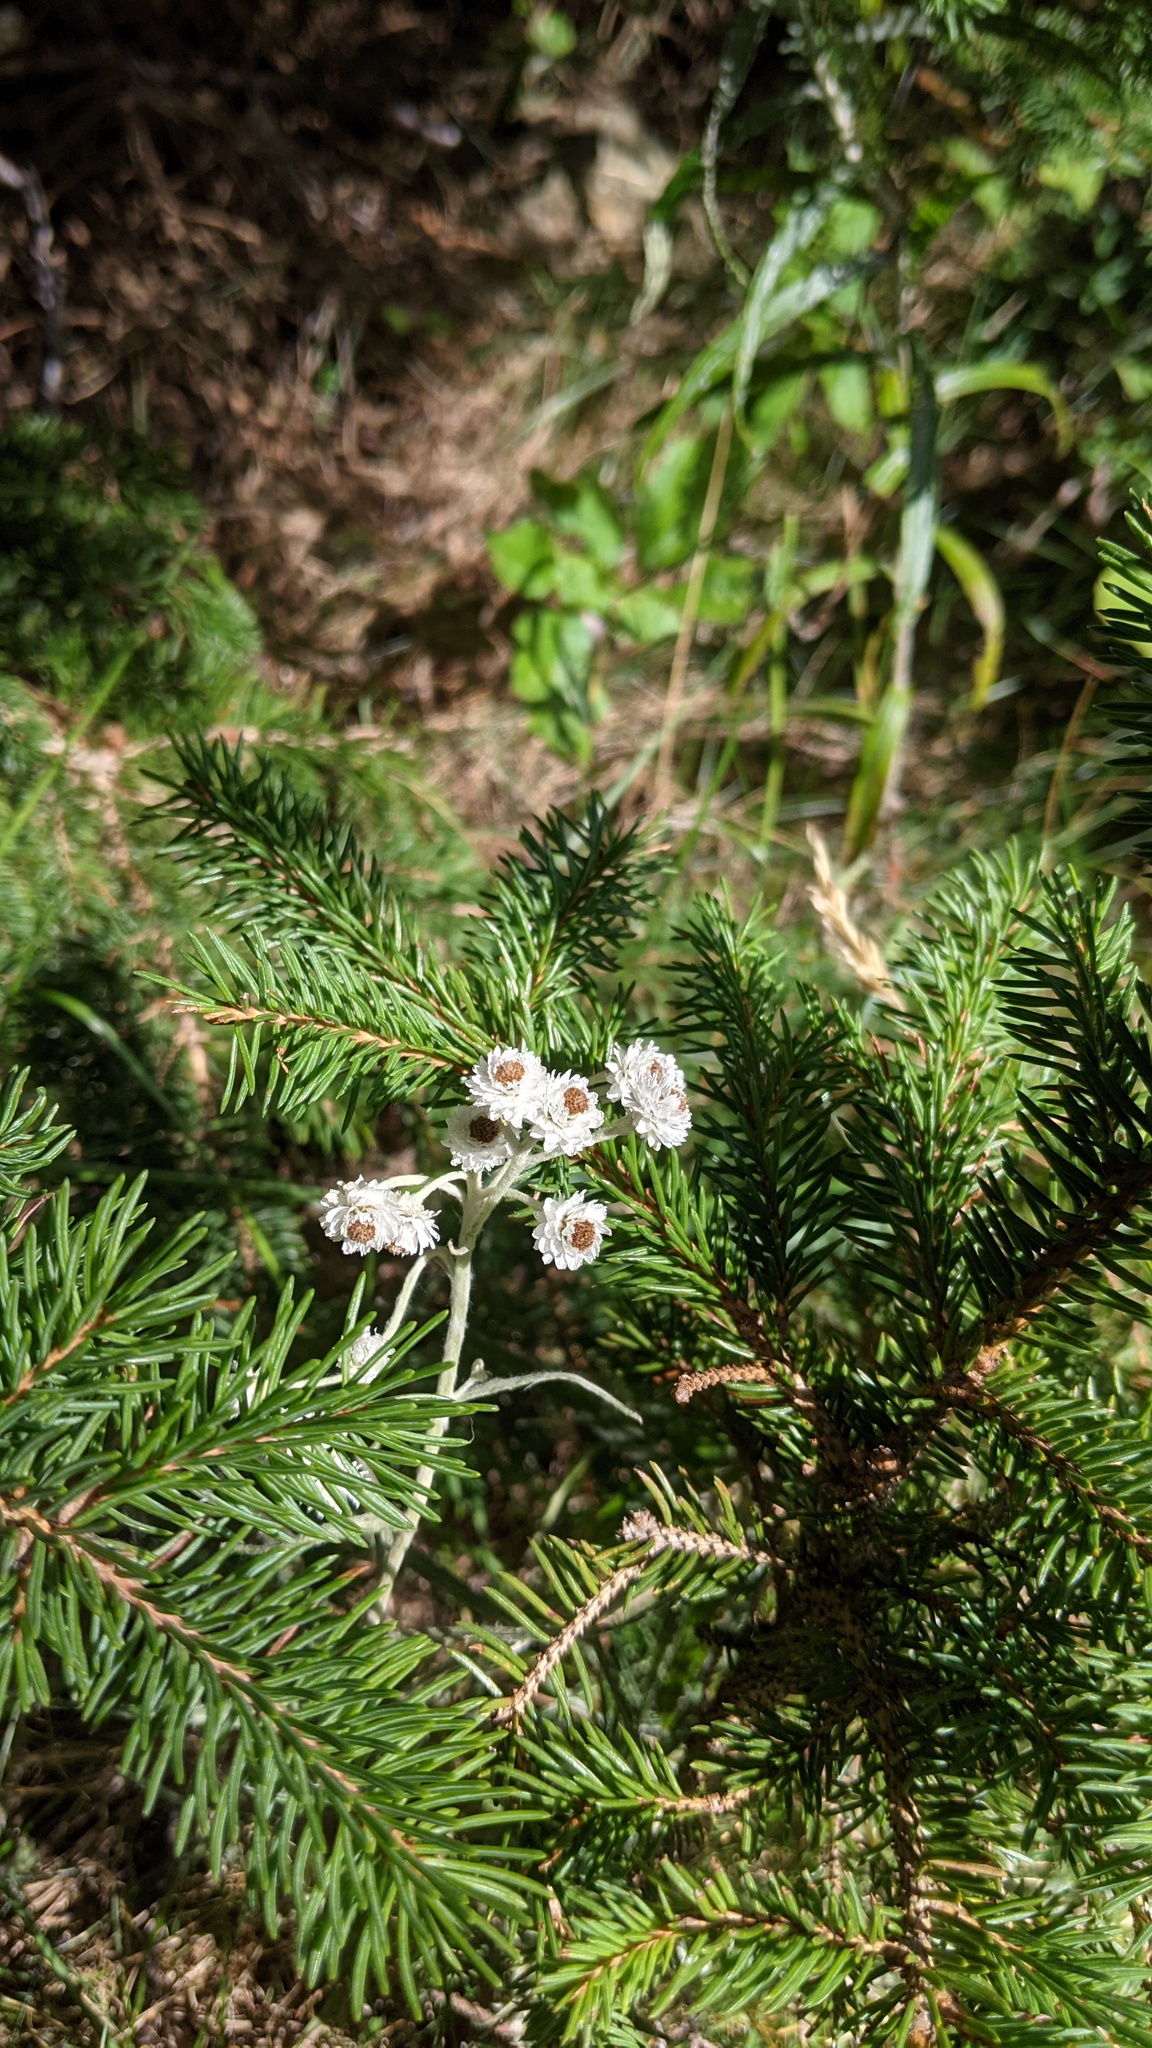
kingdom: Plantae
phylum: Tracheophyta
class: Magnoliopsida
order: Asterales
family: Asteraceae
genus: Anaphalis
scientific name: Anaphalis margaritacea
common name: Pearly everlasting
